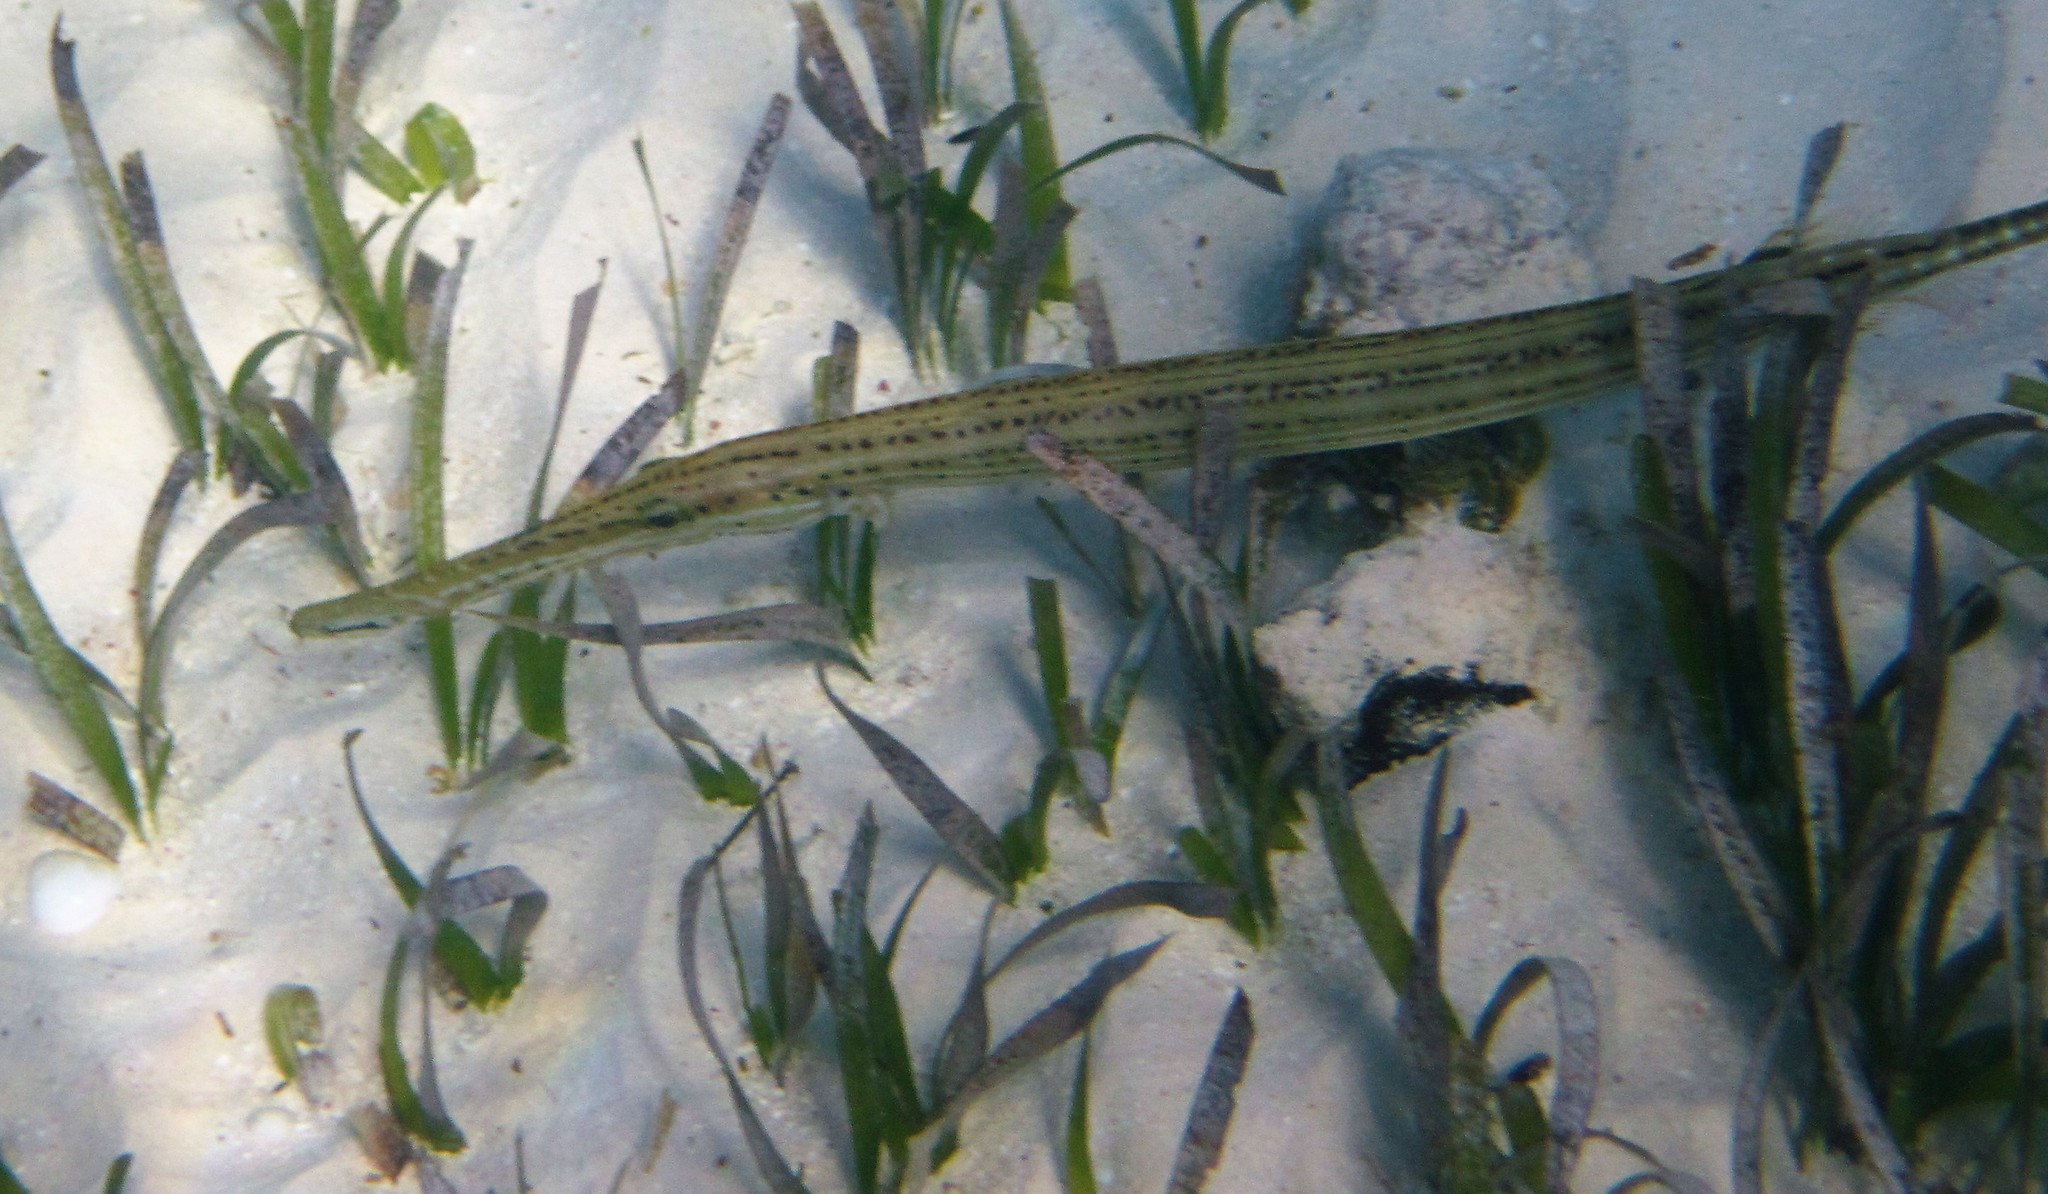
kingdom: Animalia
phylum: Chordata
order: Syngnathiformes
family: Aulostomidae
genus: Aulostomus
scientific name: Aulostomus maculatus
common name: West atlantic trumpetfish
